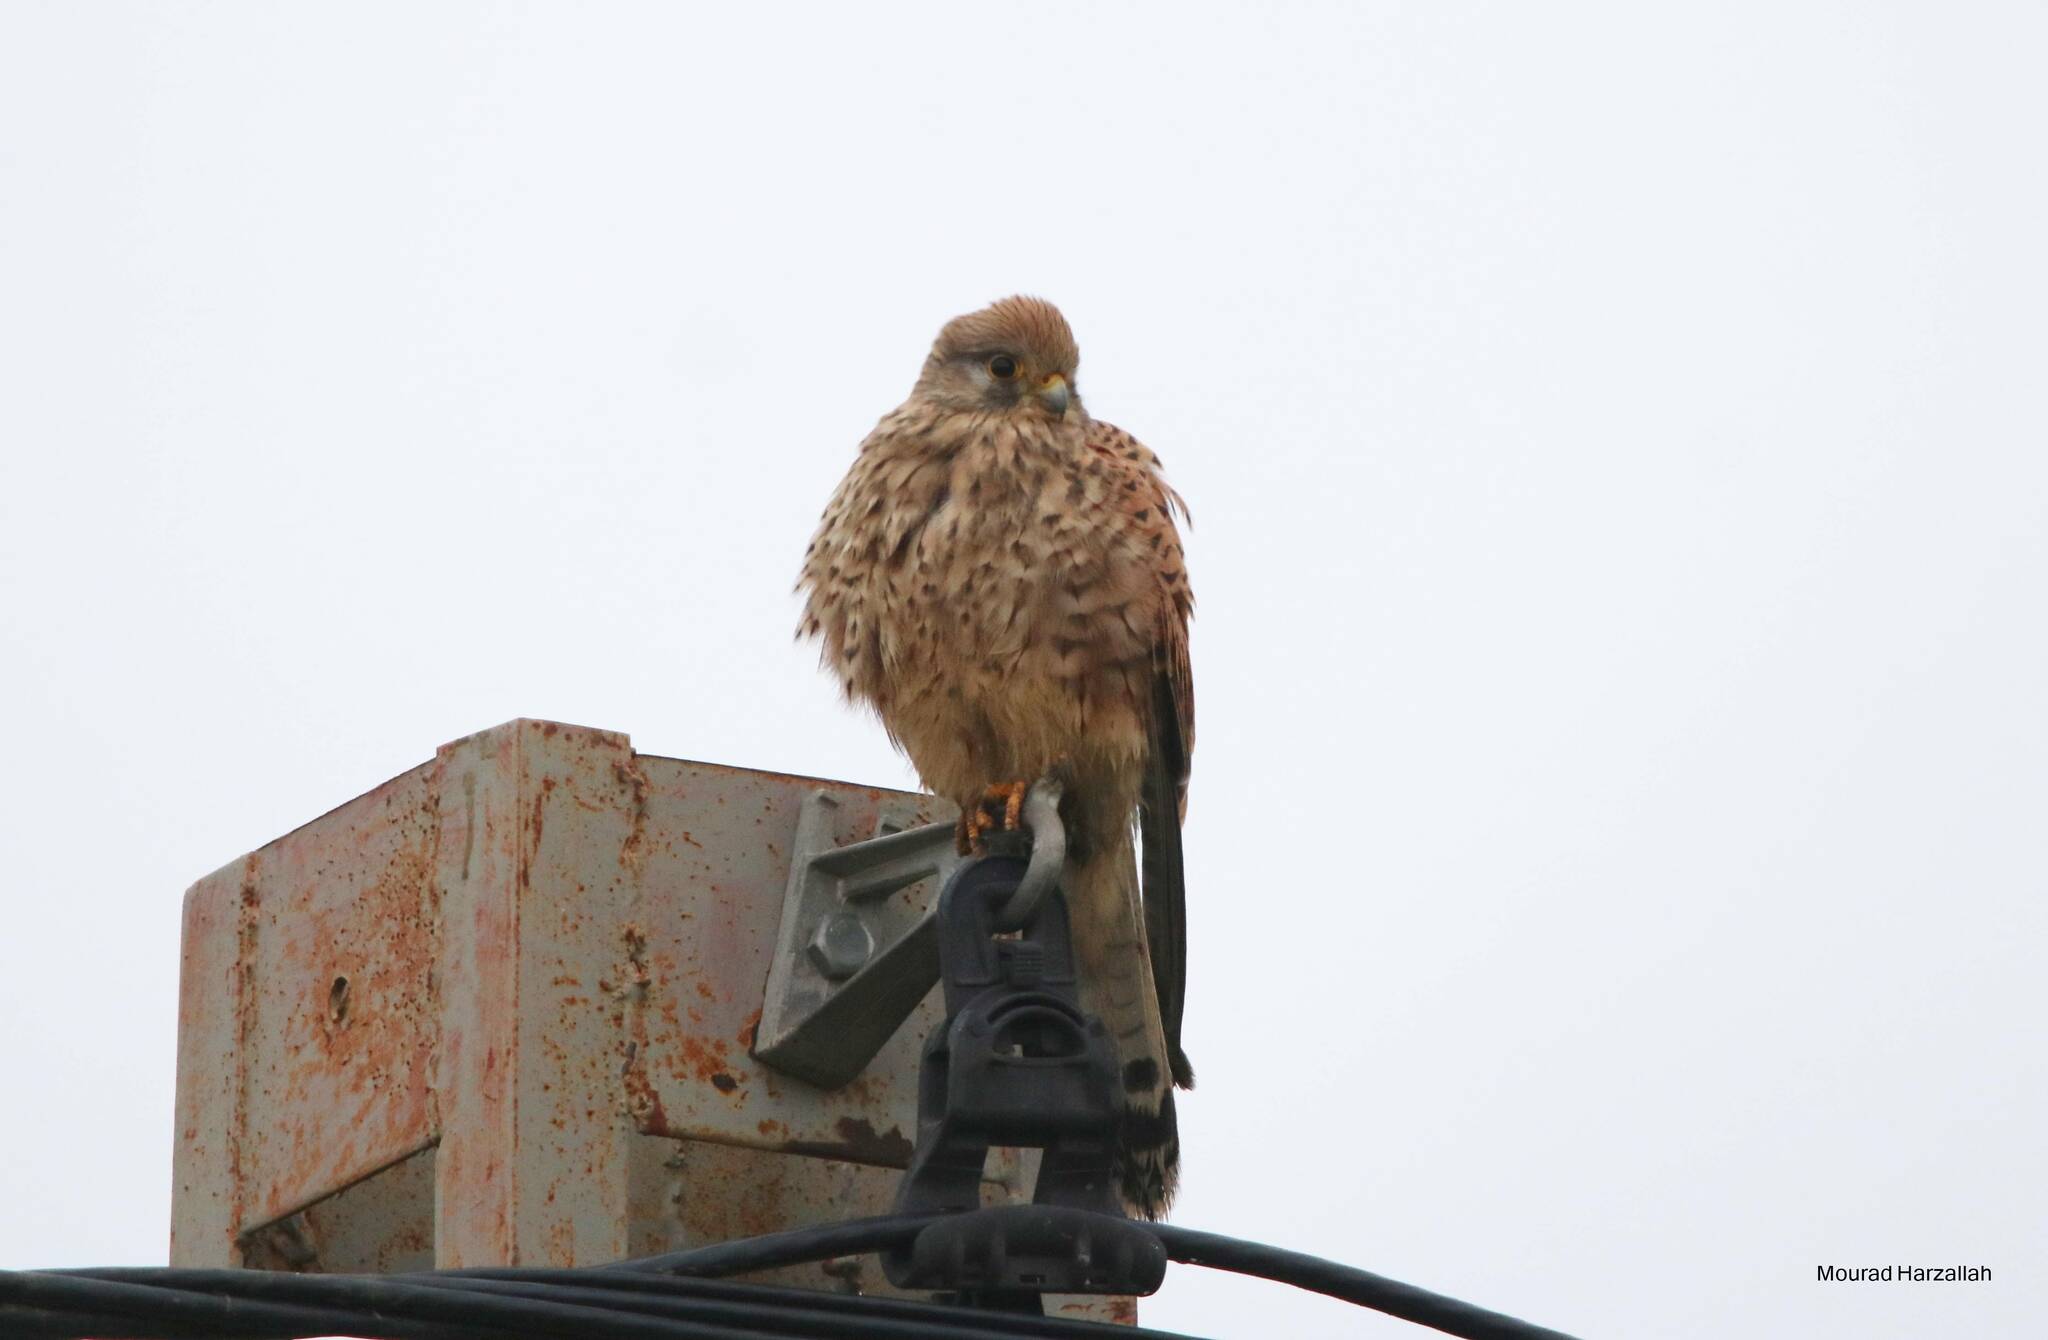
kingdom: Animalia
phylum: Chordata
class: Aves
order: Falconiformes
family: Falconidae
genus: Falco
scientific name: Falco tinnunculus
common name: Common kestrel
